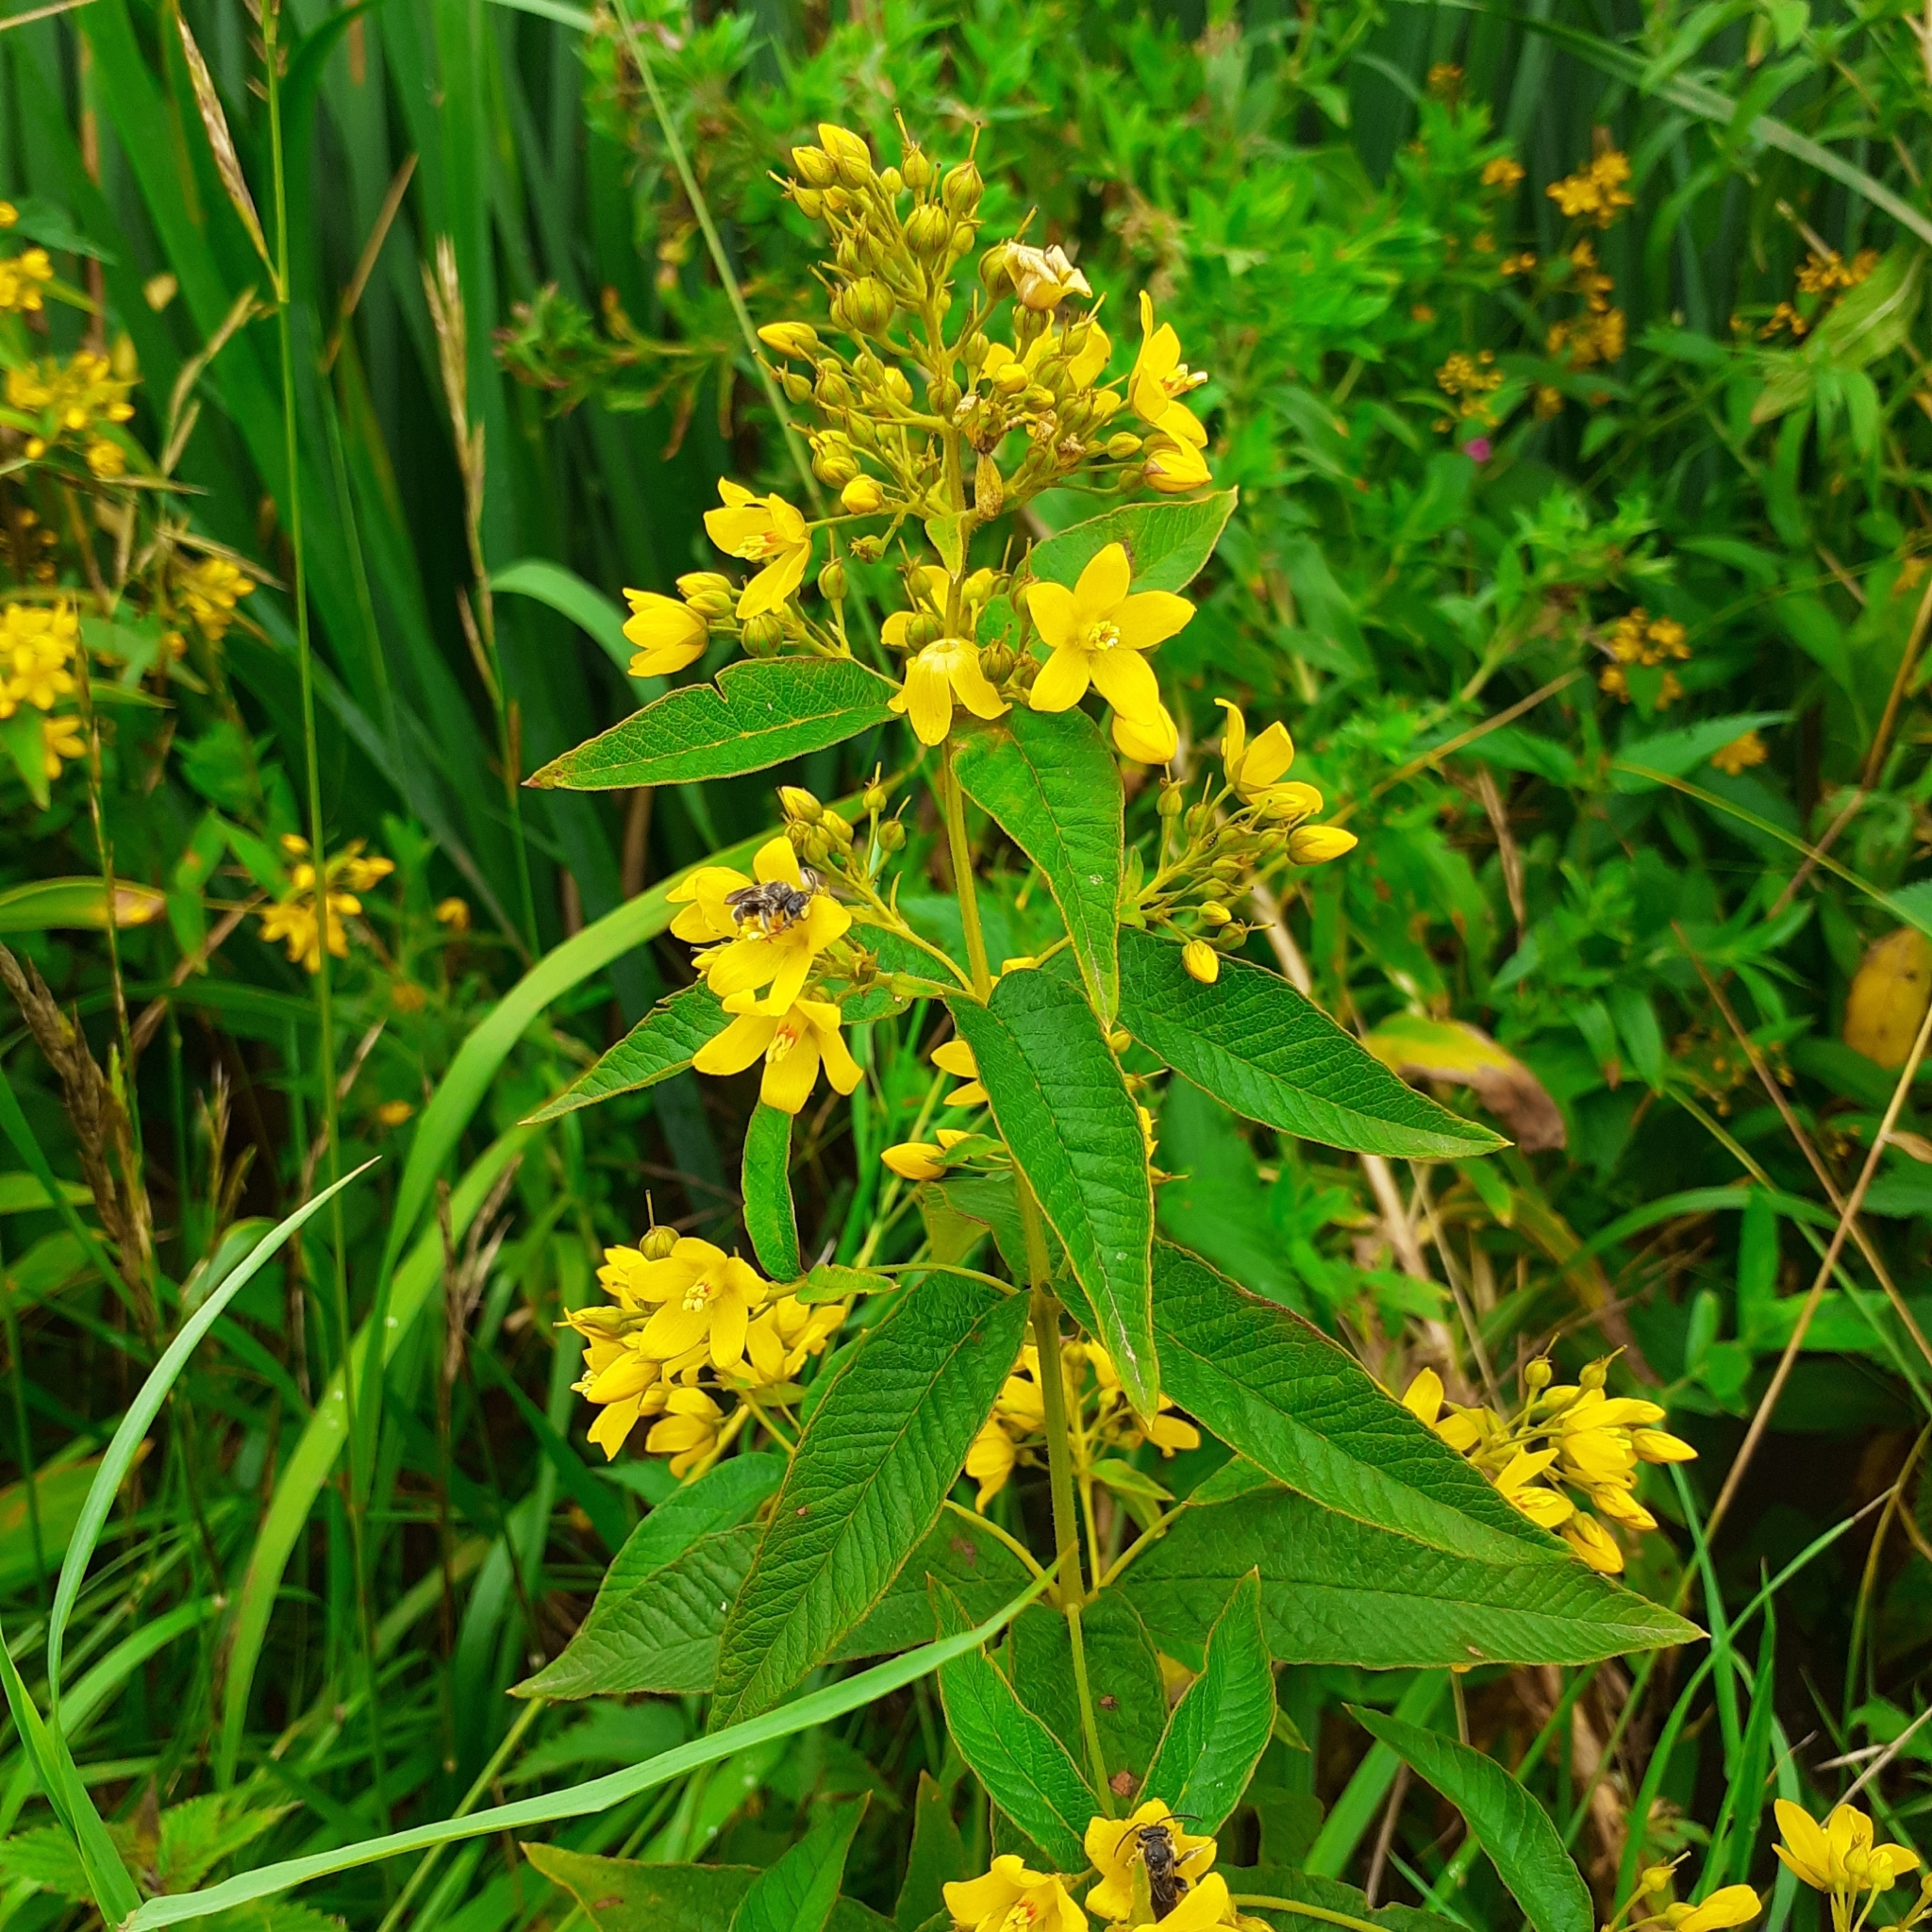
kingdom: Plantae
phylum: Tracheophyta
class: Magnoliopsida
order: Ericales
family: Primulaceae
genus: Lysimachia
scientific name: Lysimachia vulgaris
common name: Yellow loosestrife
